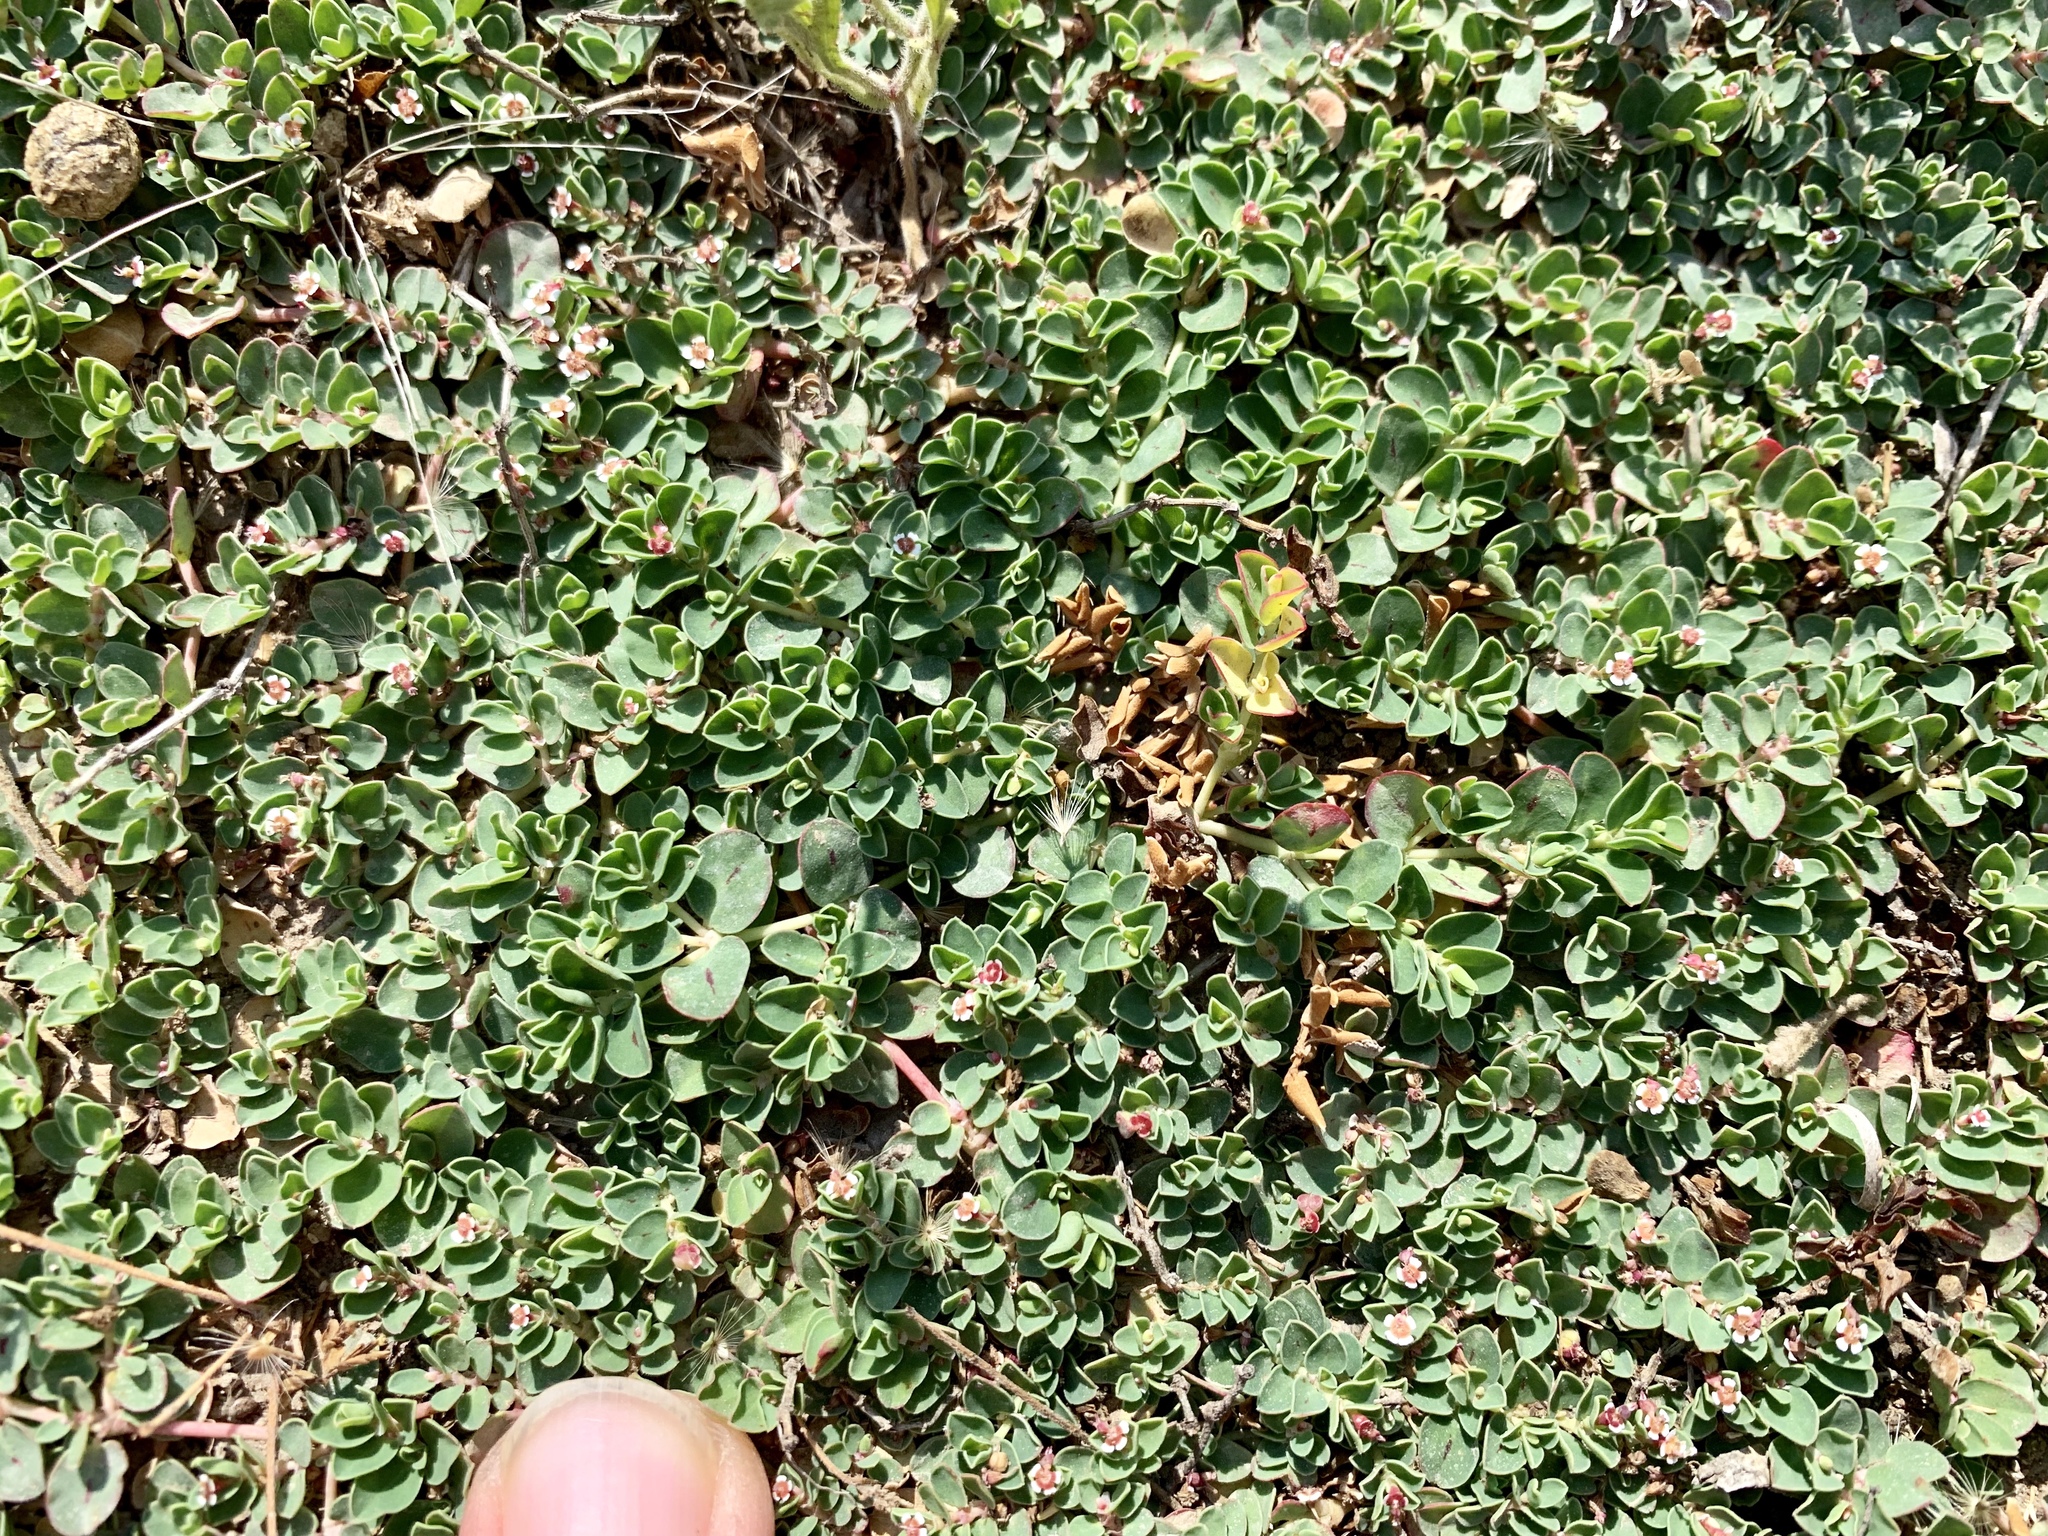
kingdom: Plantae
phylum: Tracheophyta
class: Magnoliopsida
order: Malpighiales
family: Euphorbiaceae
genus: Euphorbia
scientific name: Euphorbia albomarginata
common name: Whitemargin sandmat
